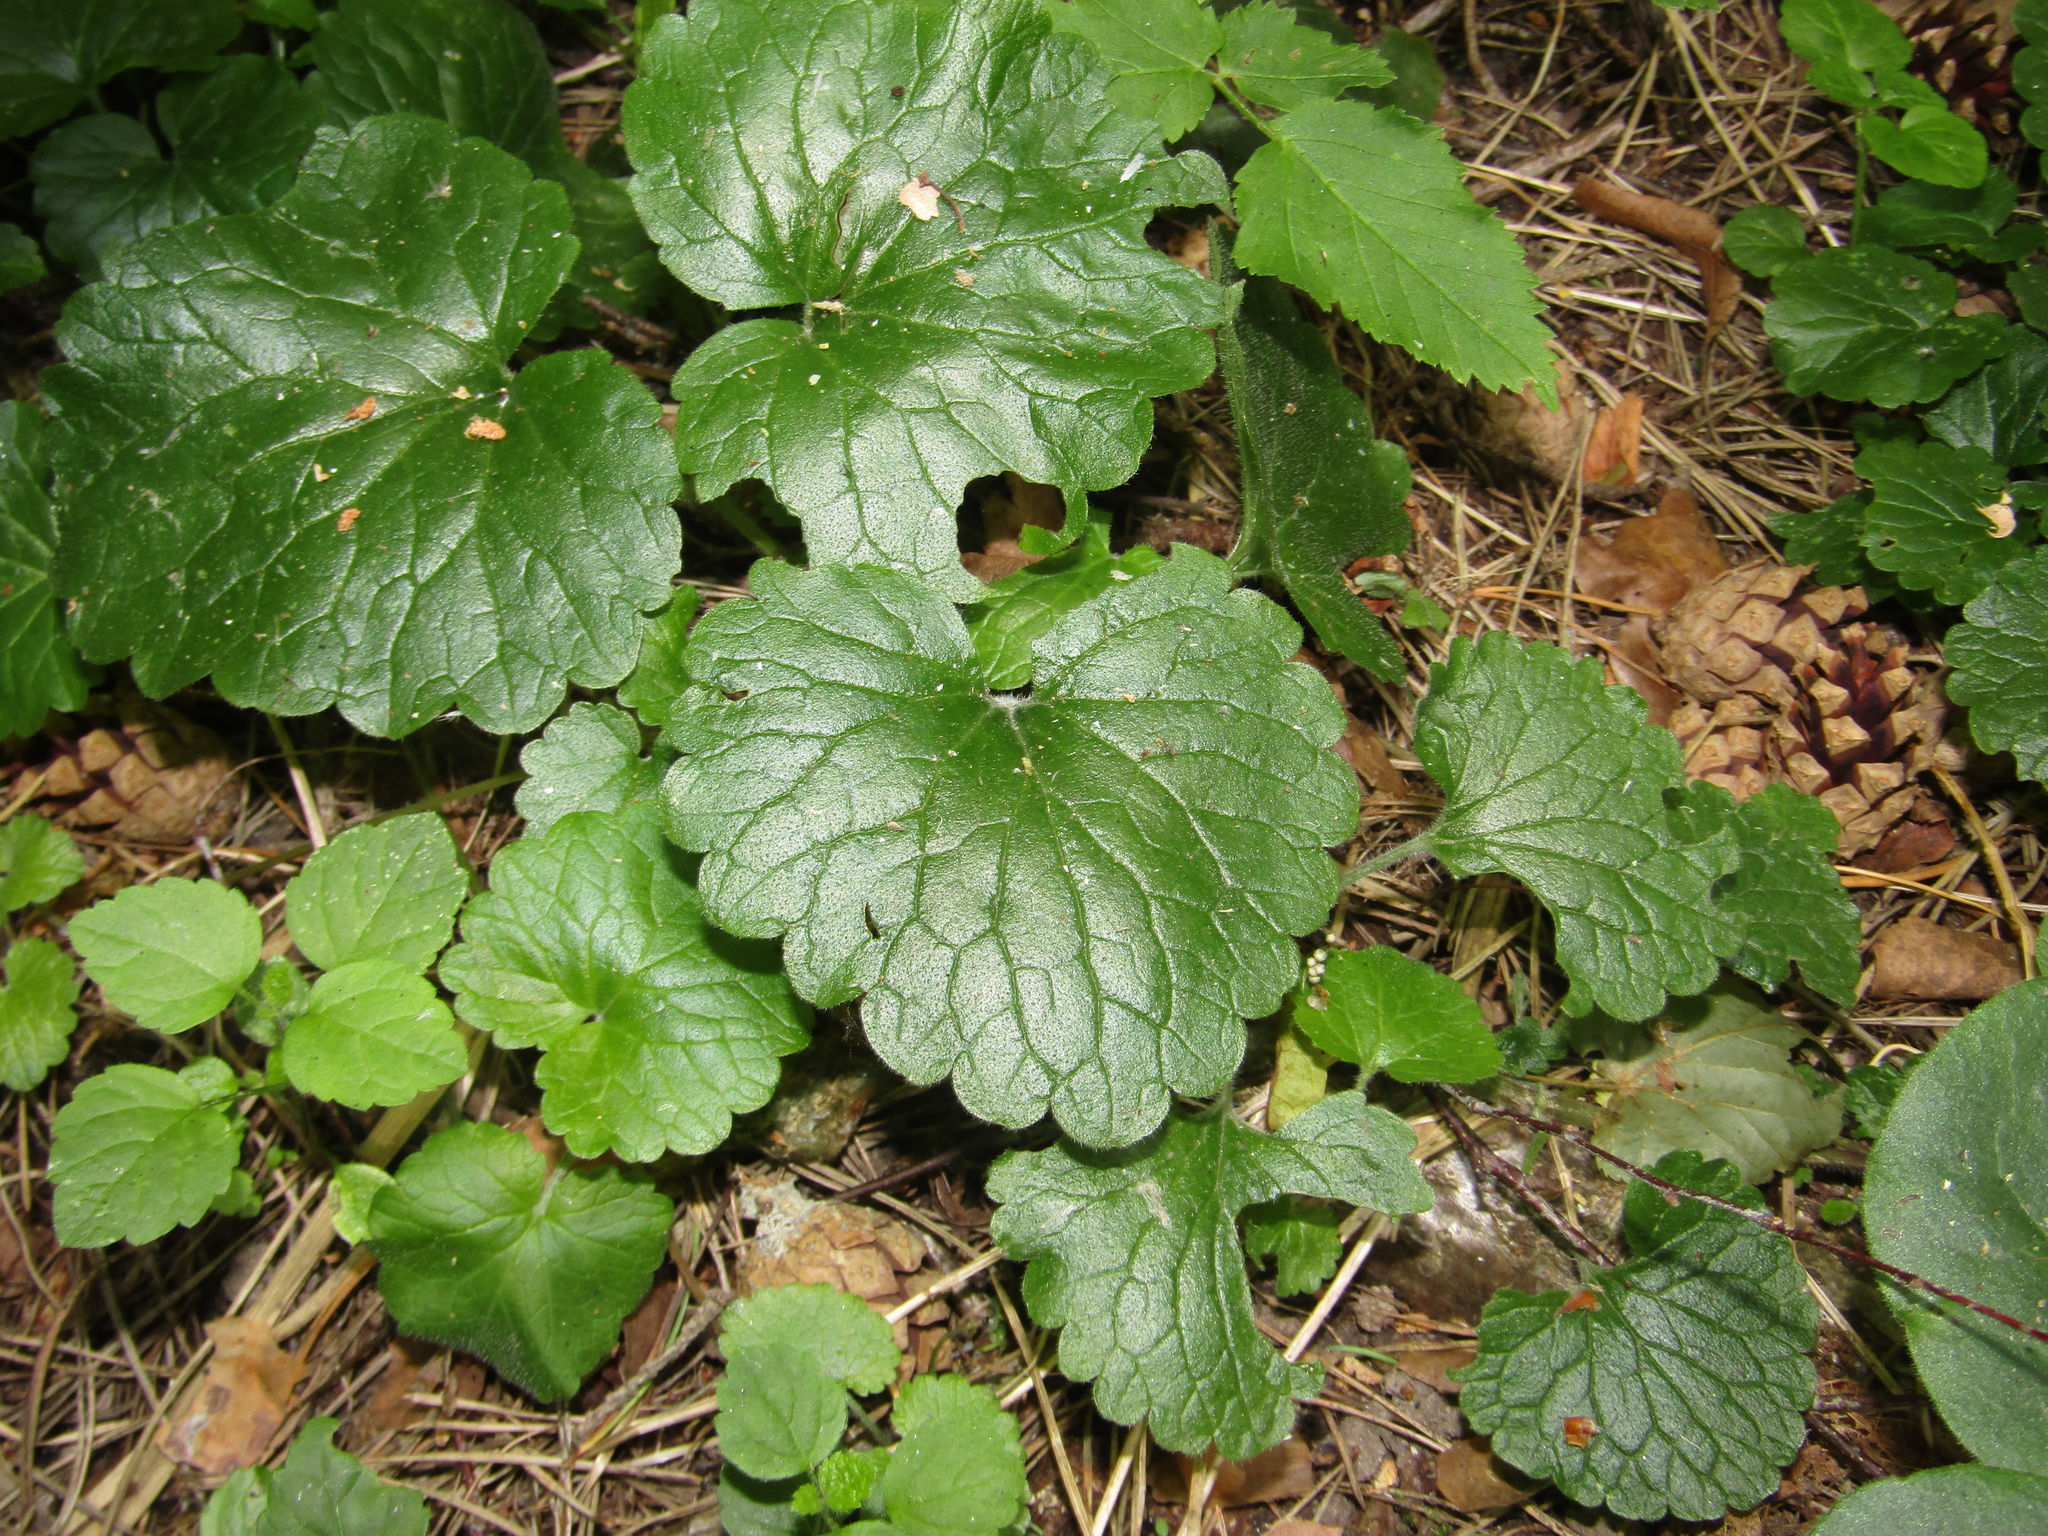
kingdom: Plantae
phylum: Tracheophyta
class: Magnoliopsida
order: Lamiales
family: Lamiaceae
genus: Glechoma
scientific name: Glechoma hederacea
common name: Ground ivy
